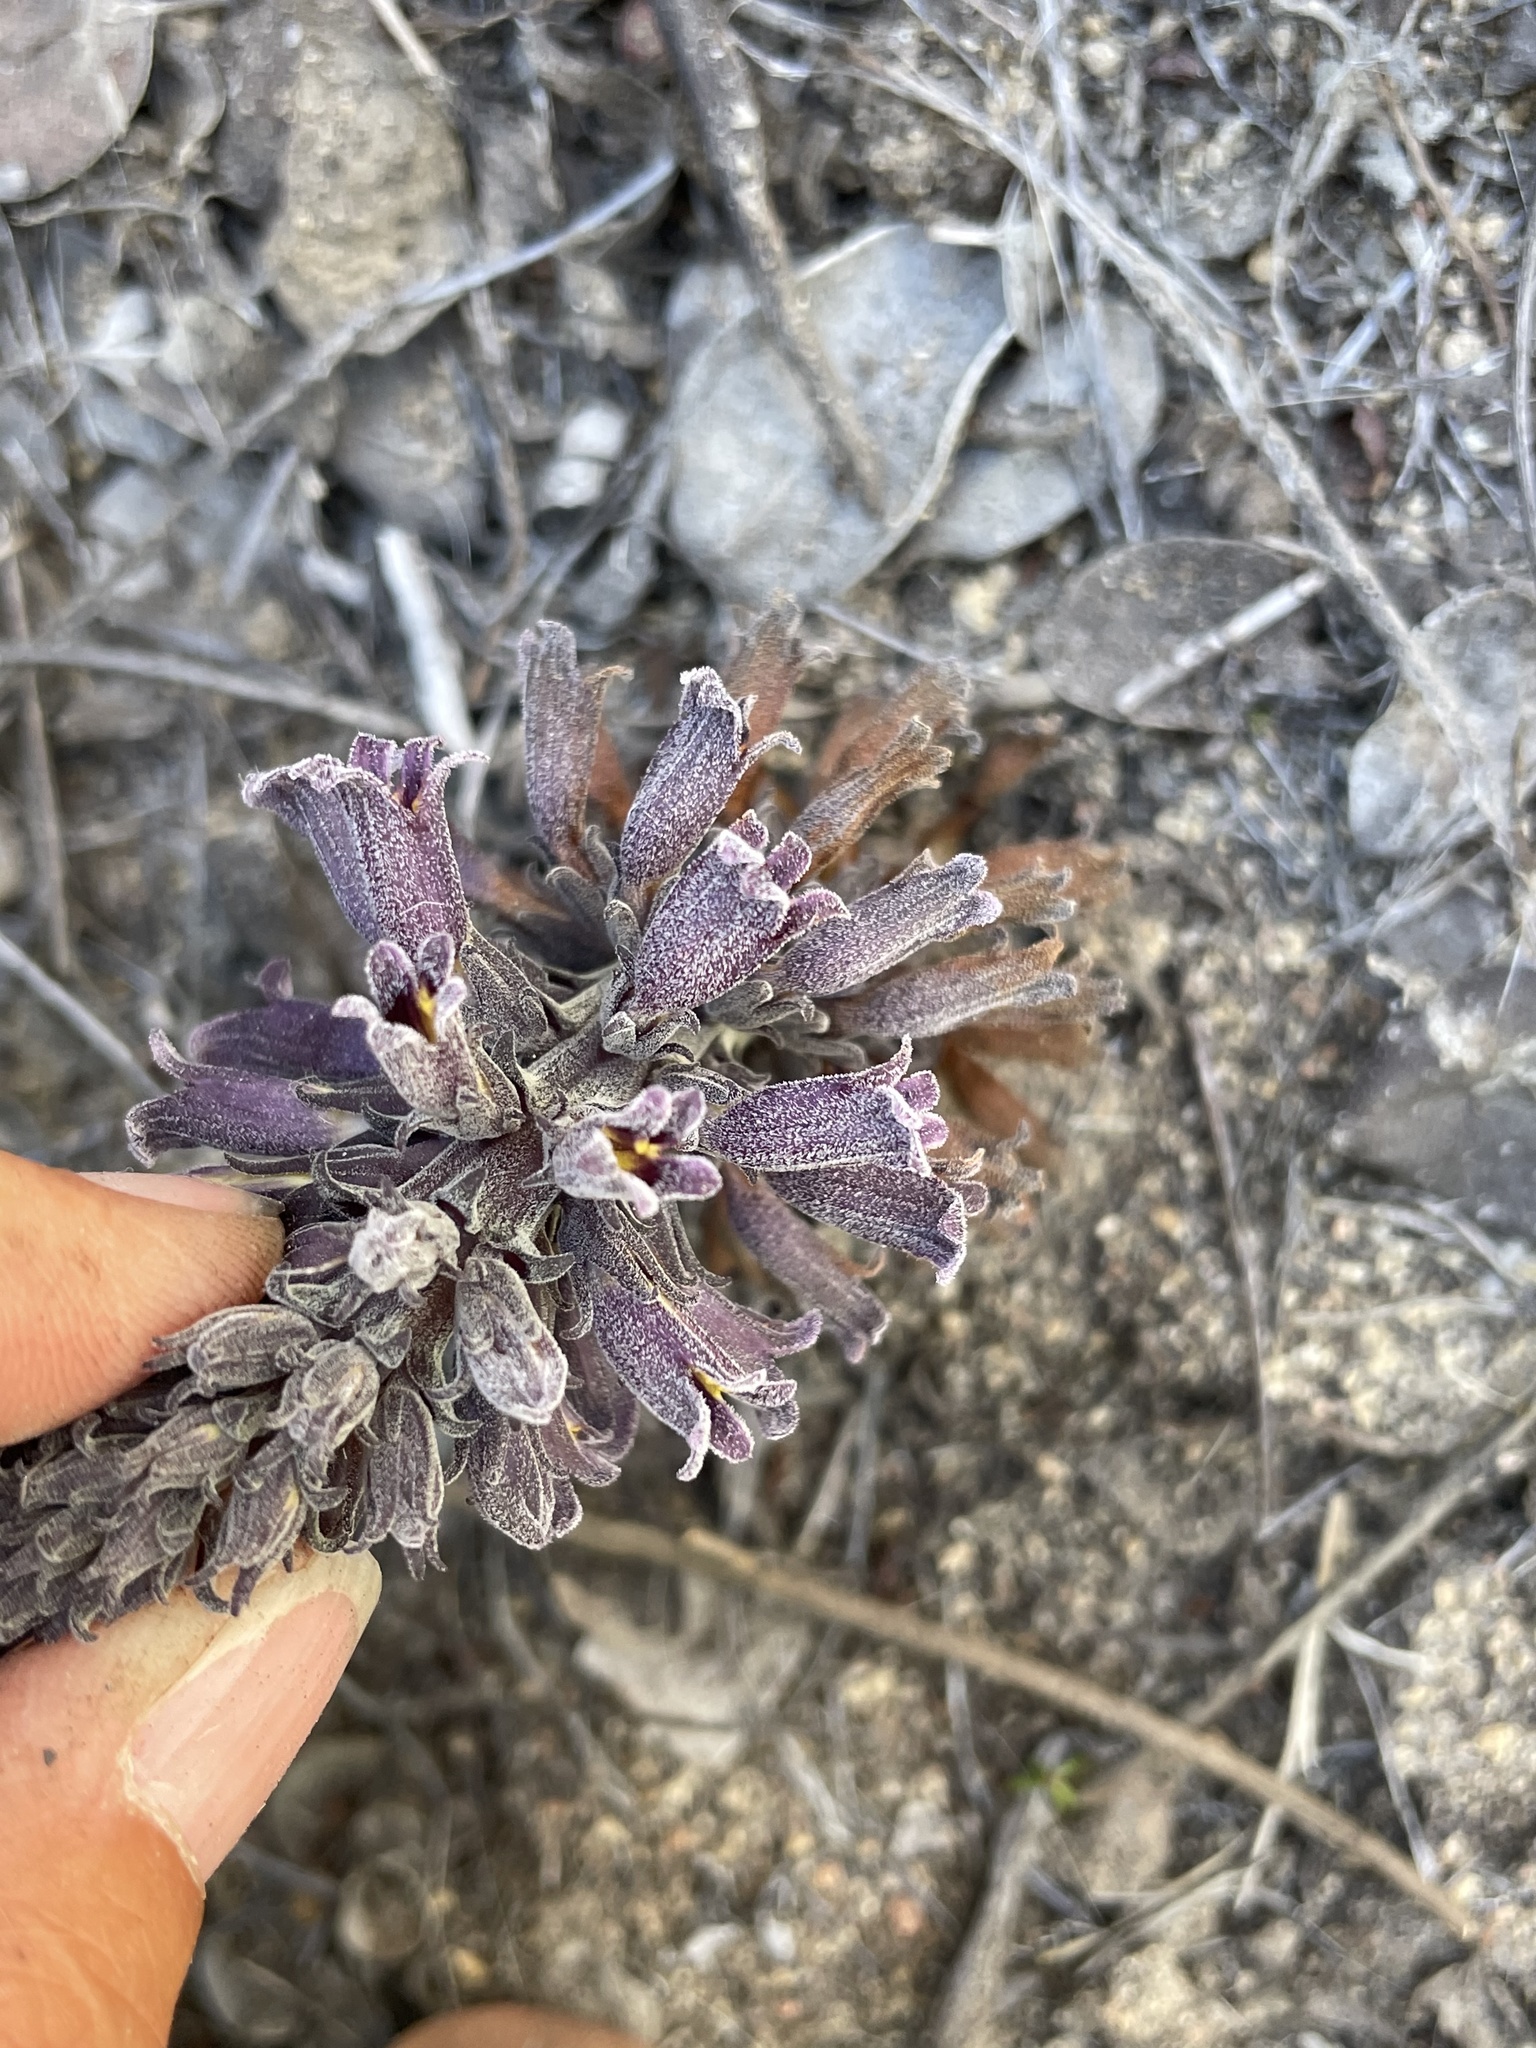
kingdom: Plantae
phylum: Tracheophyta
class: Magnoliopsida
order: Lamiales
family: Orobanchaceae
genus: Aphyllon
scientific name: Aphyllon tuberosum
